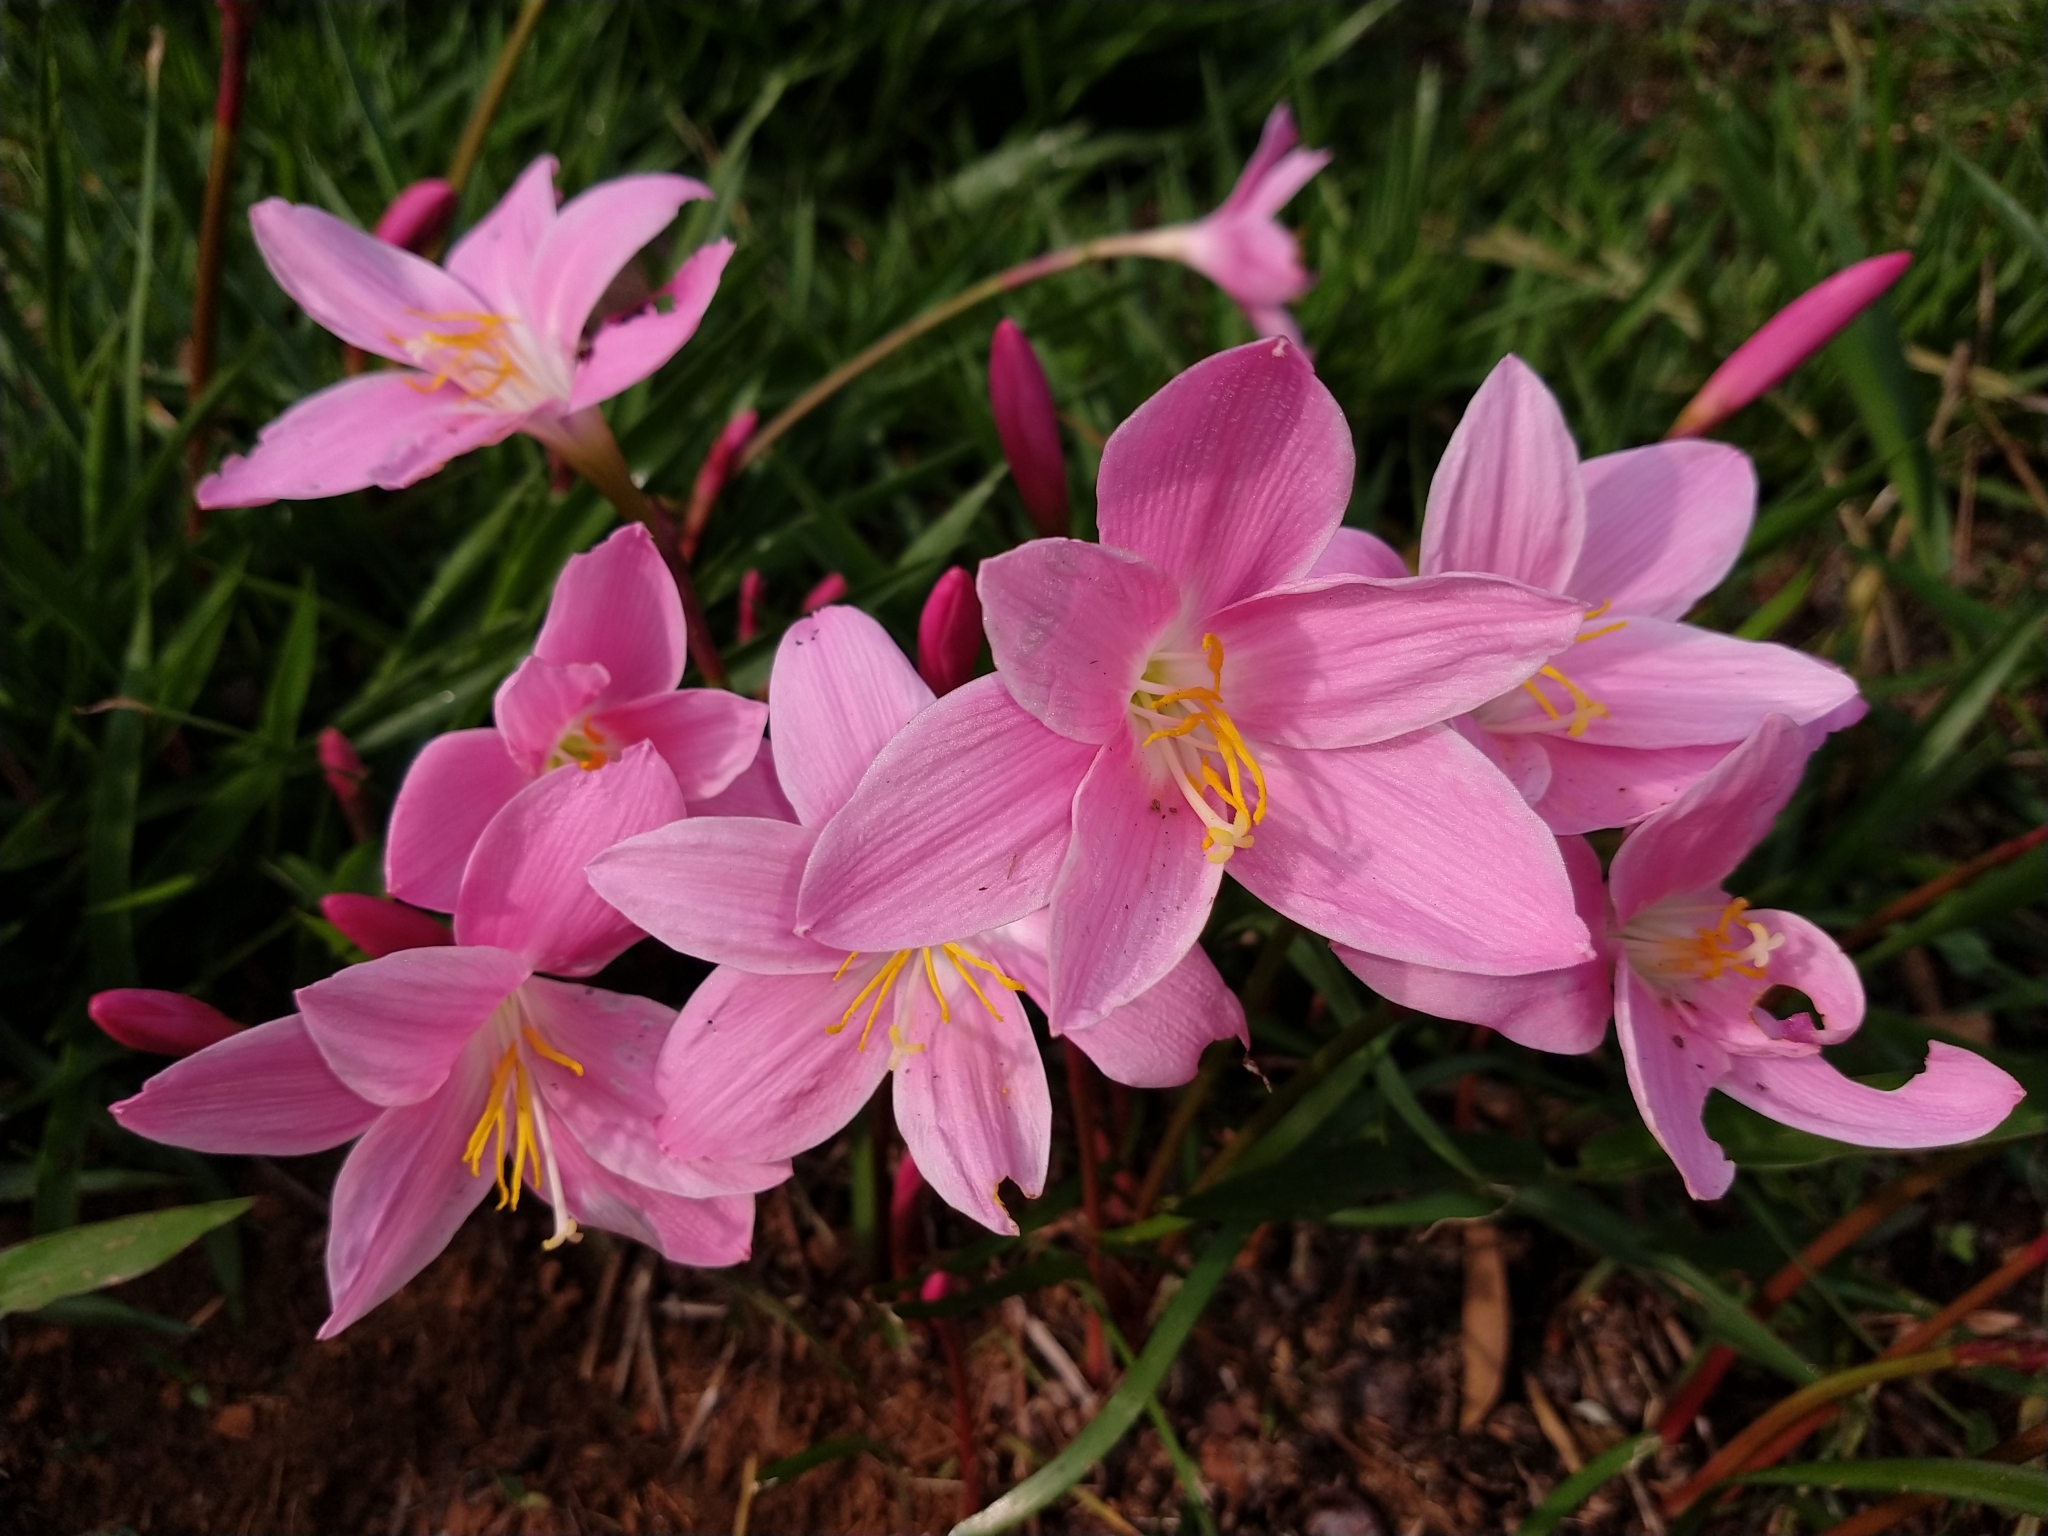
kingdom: Plantae
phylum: Tracheophyta
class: Liliopsida
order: Asparagales
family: Amaryllidaceae
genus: Zephyranthes
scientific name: Zephyranthes carinata
